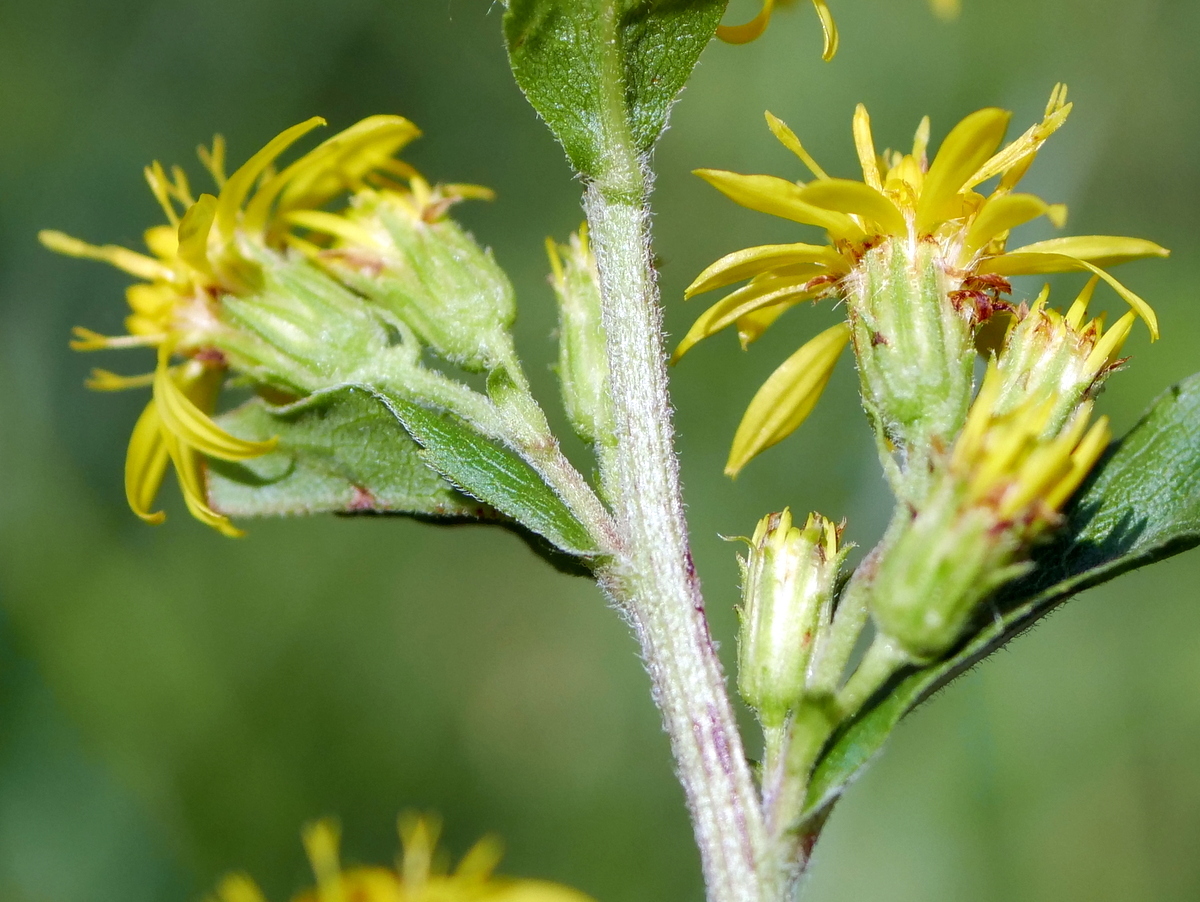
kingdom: Plantae
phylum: Tracheophyta
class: Magnoliopsida
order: Asterales
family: Asteraceae
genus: Solidago
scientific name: Solidago virgaurea
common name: Goldenrod
